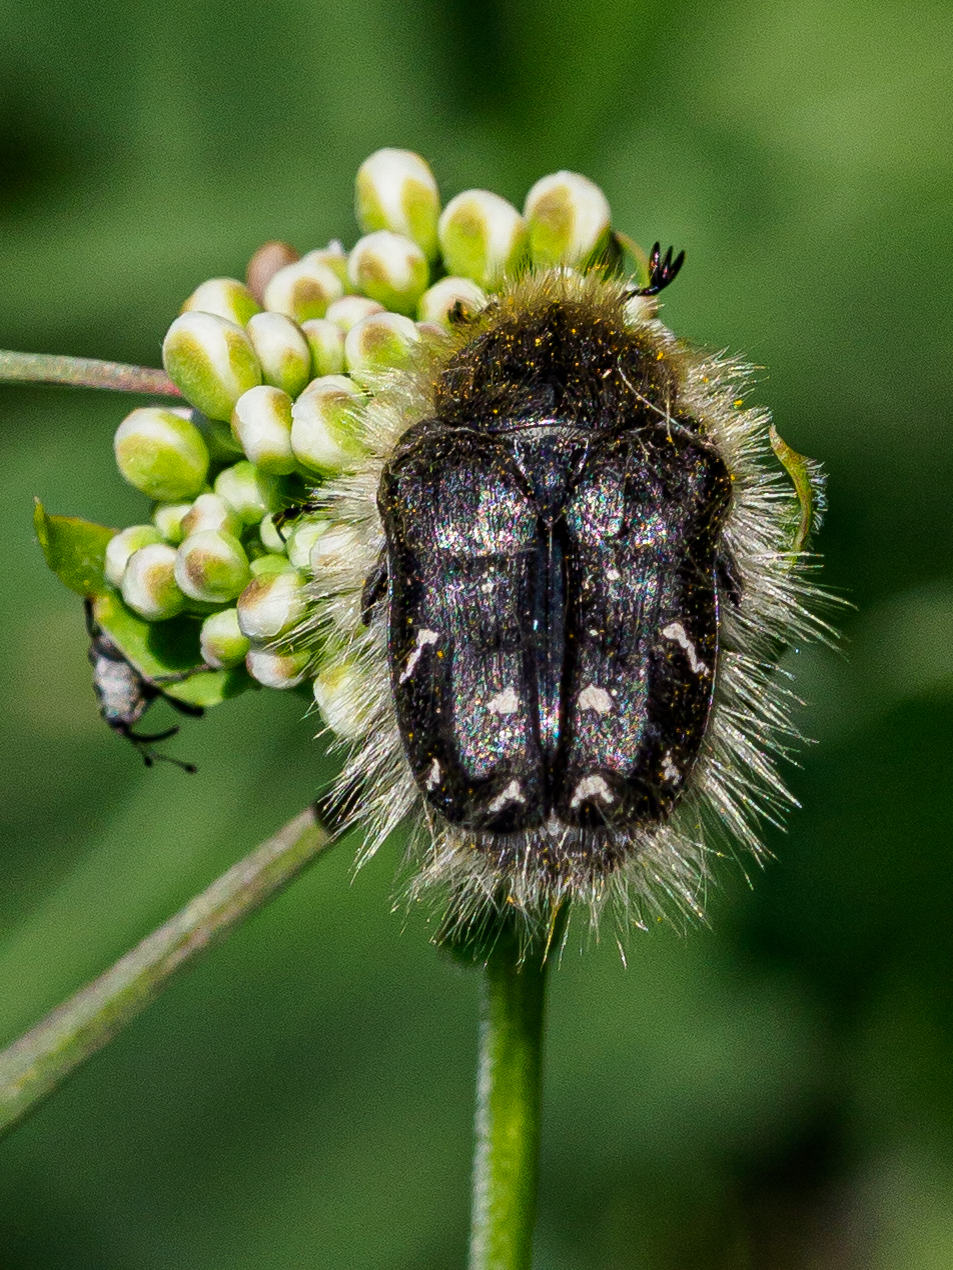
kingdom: Animalia
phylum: Arthropoda
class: Insecta
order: Coleoptera
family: Scarabaeidae
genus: Tropinota
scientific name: Tropinota hirta
